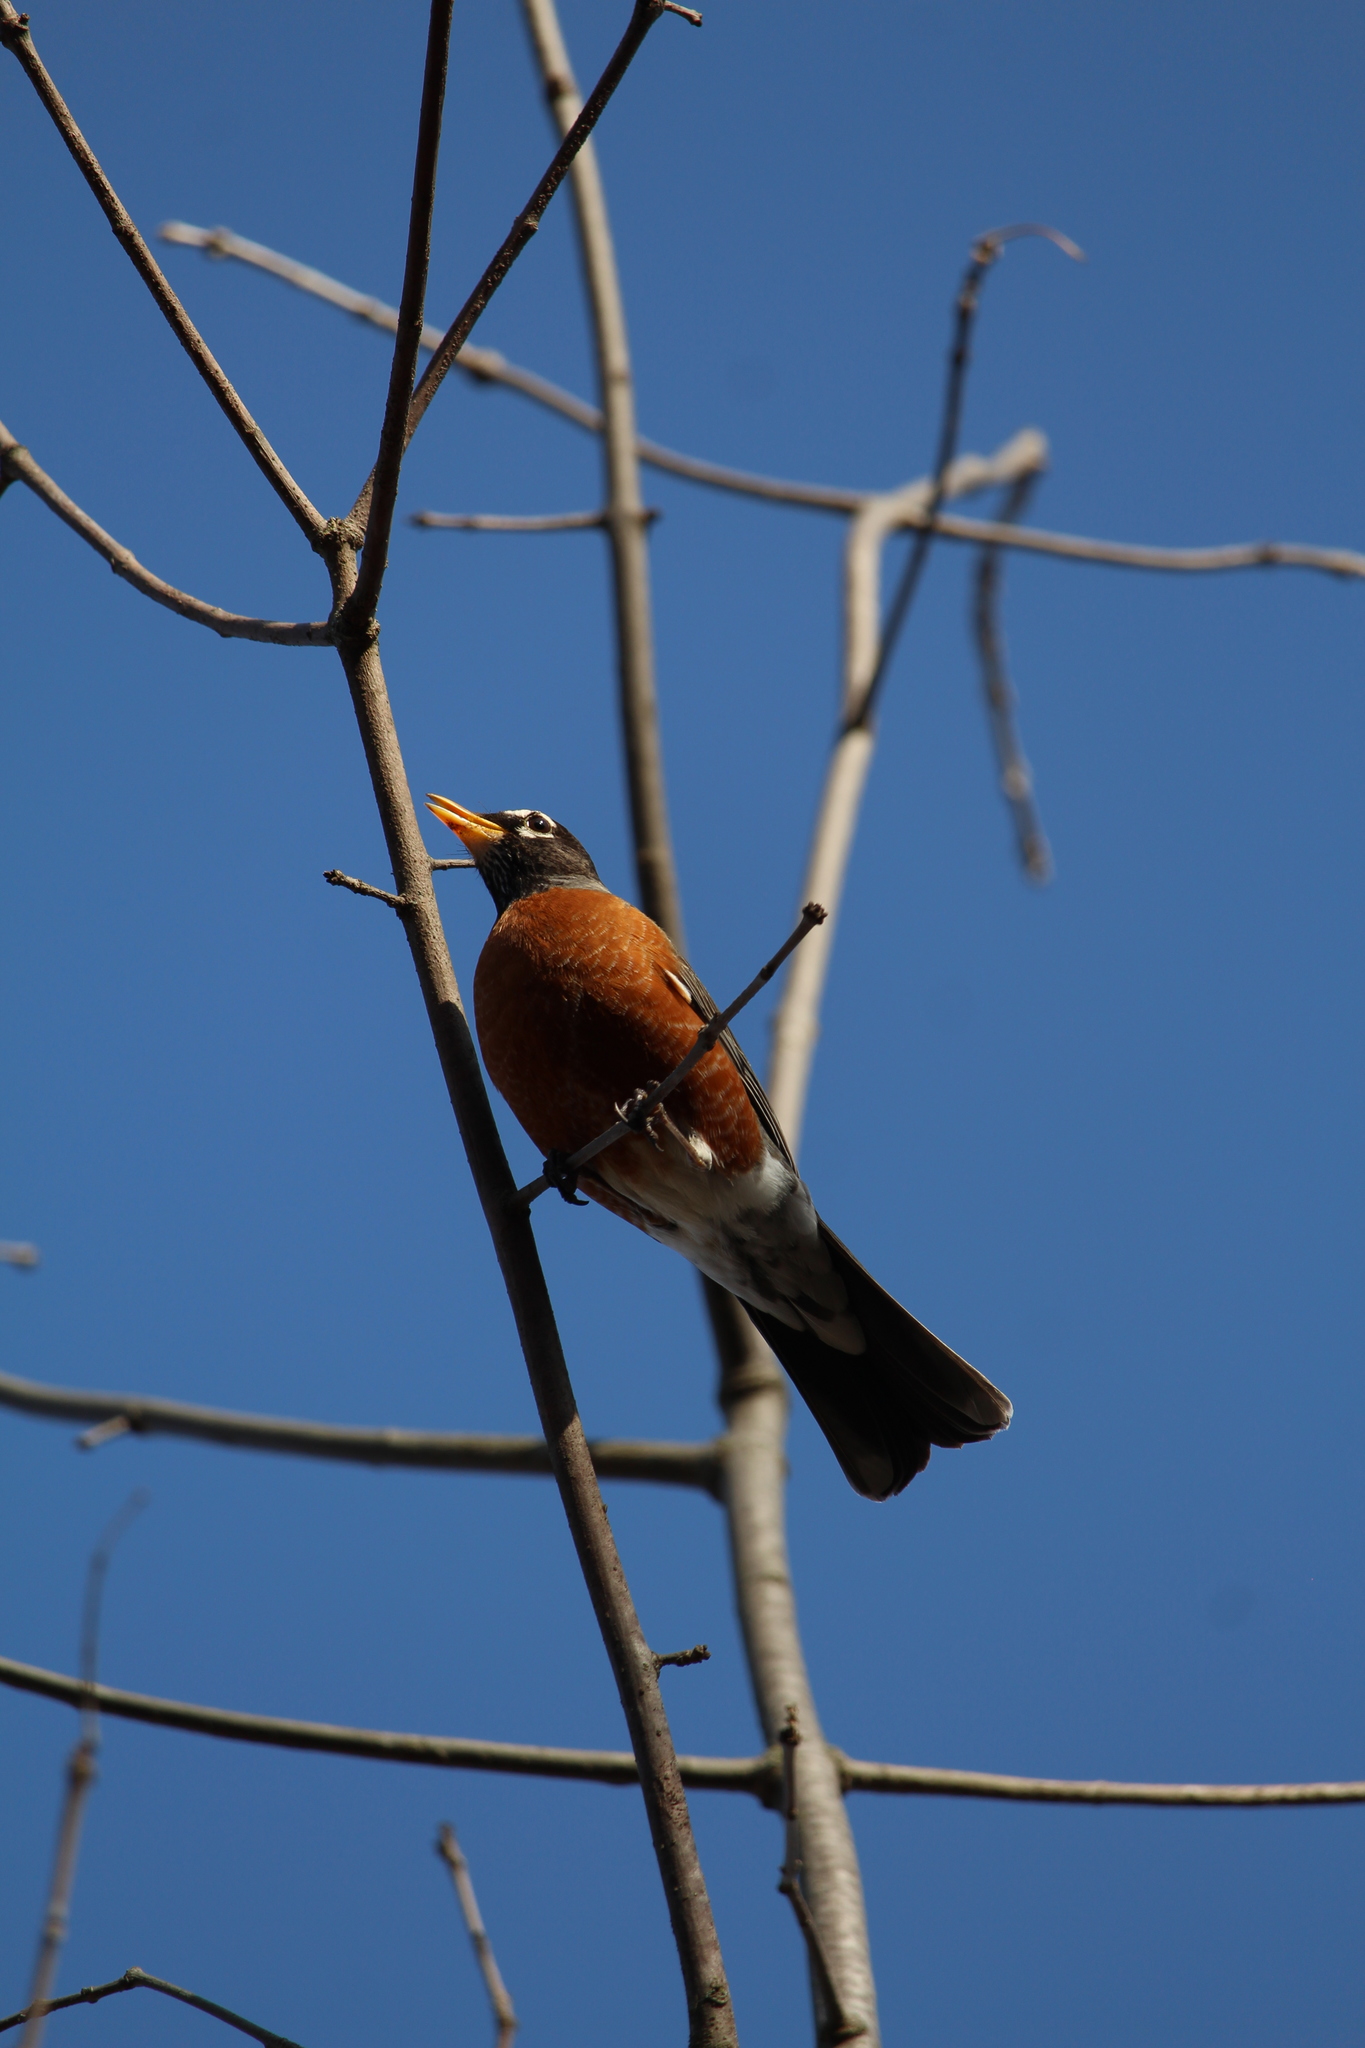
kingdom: Animalia
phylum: Chordata
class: Aves
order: Passeriformes
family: Turdidae
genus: Turdus
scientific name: Turdus migratorius
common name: American robin
